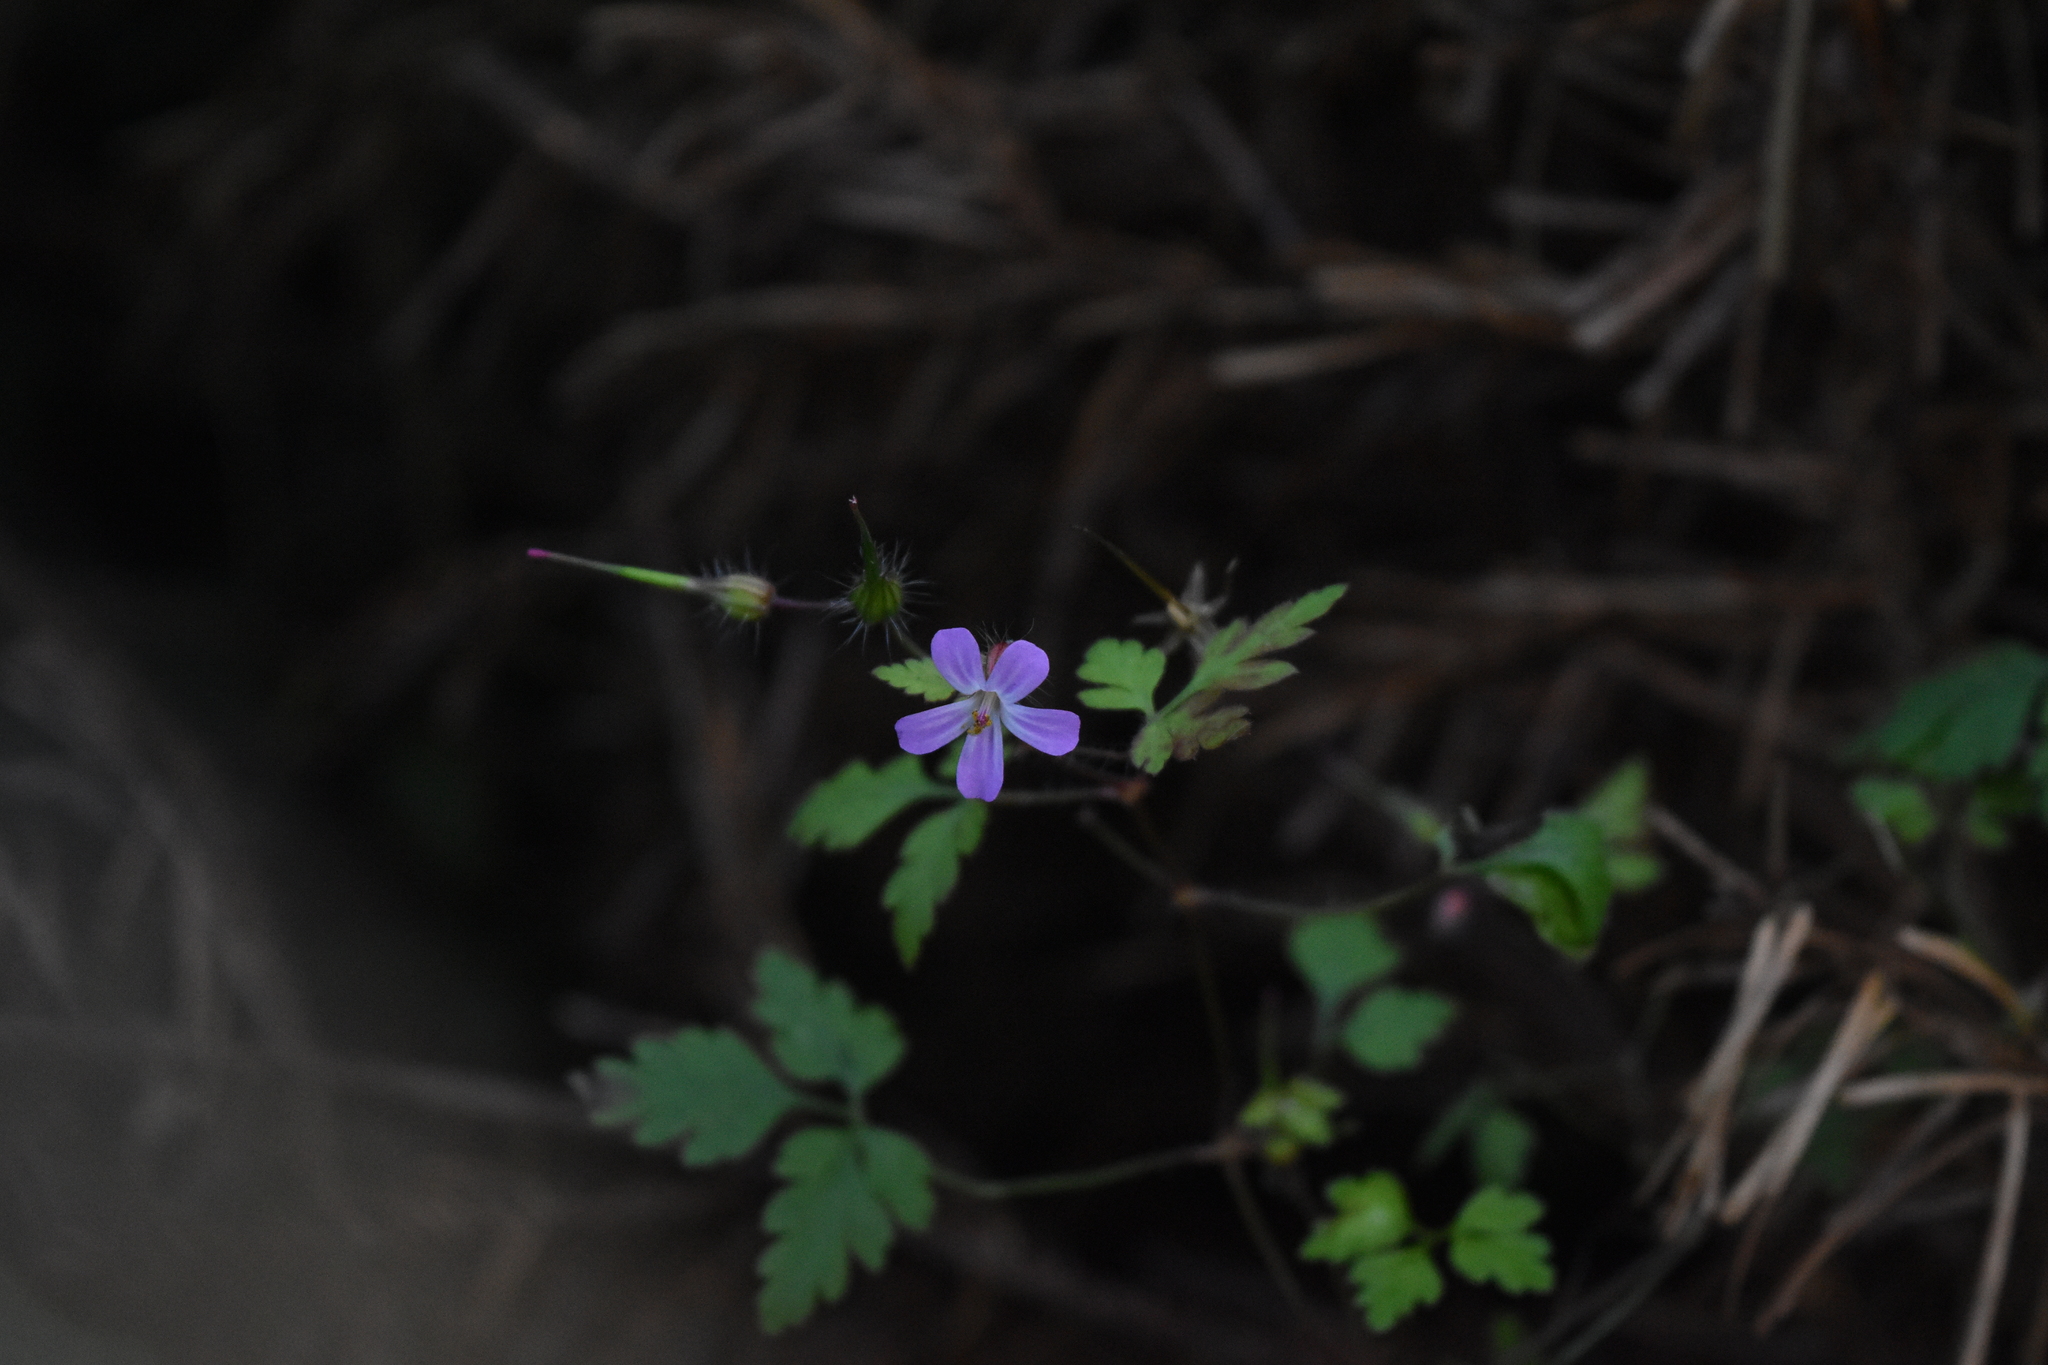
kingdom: Plantae
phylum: Tracheophyta
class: Magnoliopsida
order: Geraniales
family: Geraniaceae
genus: Geranium
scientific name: Geranium robertianum
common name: Herb-robert
